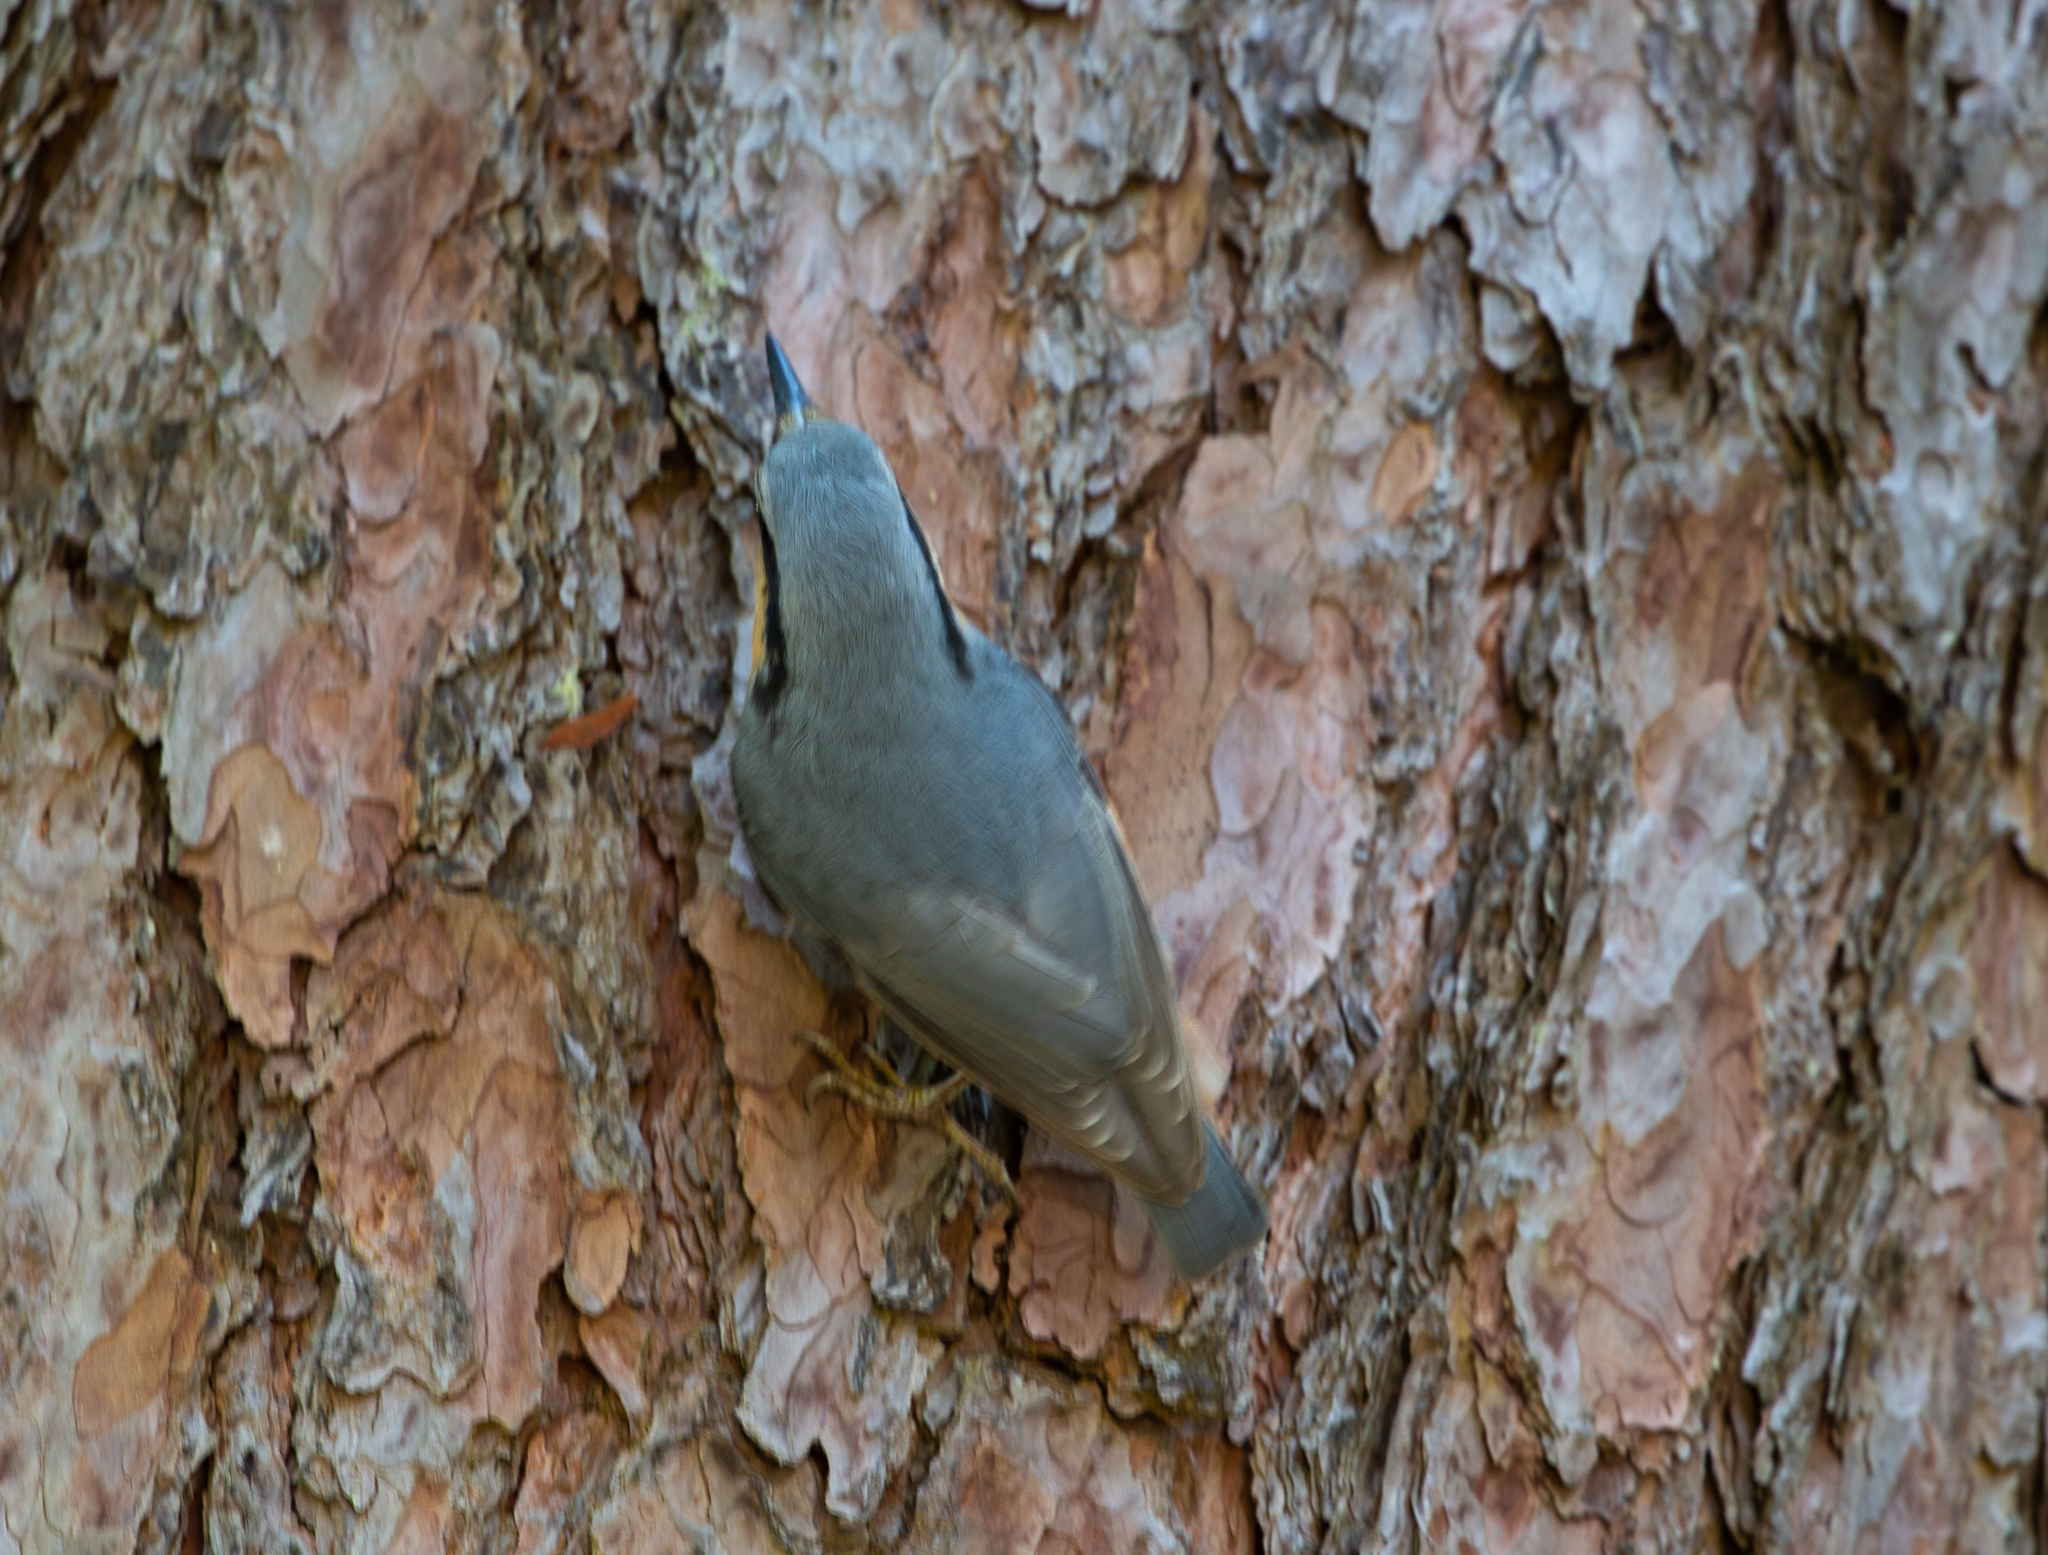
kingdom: Animalia
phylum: Chordata
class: Aves
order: Passeriformes
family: Sittidae
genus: Sitta
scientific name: Sitta europaea
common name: Eurasian nuthatch
